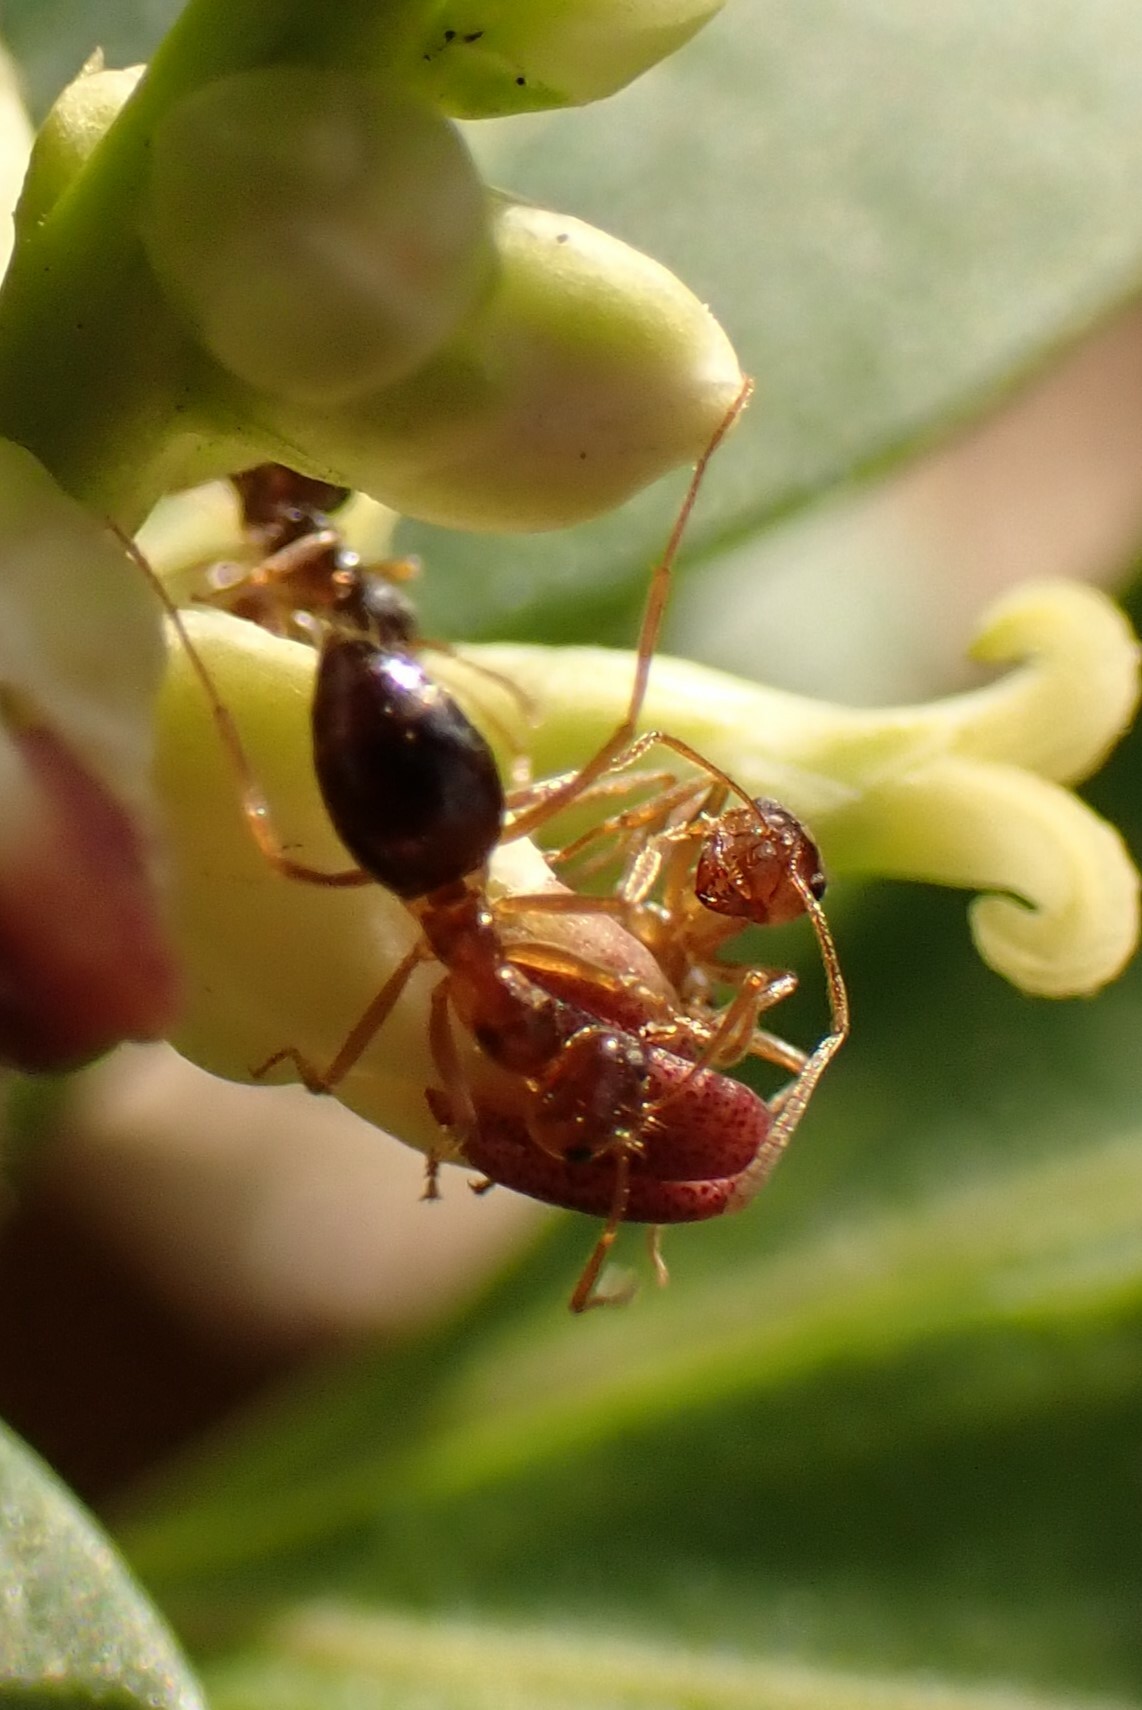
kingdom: Animalia
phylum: Arthropoda
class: Insecta
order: Hymenoptera
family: Formicidae
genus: Prenolepis
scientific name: Prenolepis imparis
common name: Small honey ant
